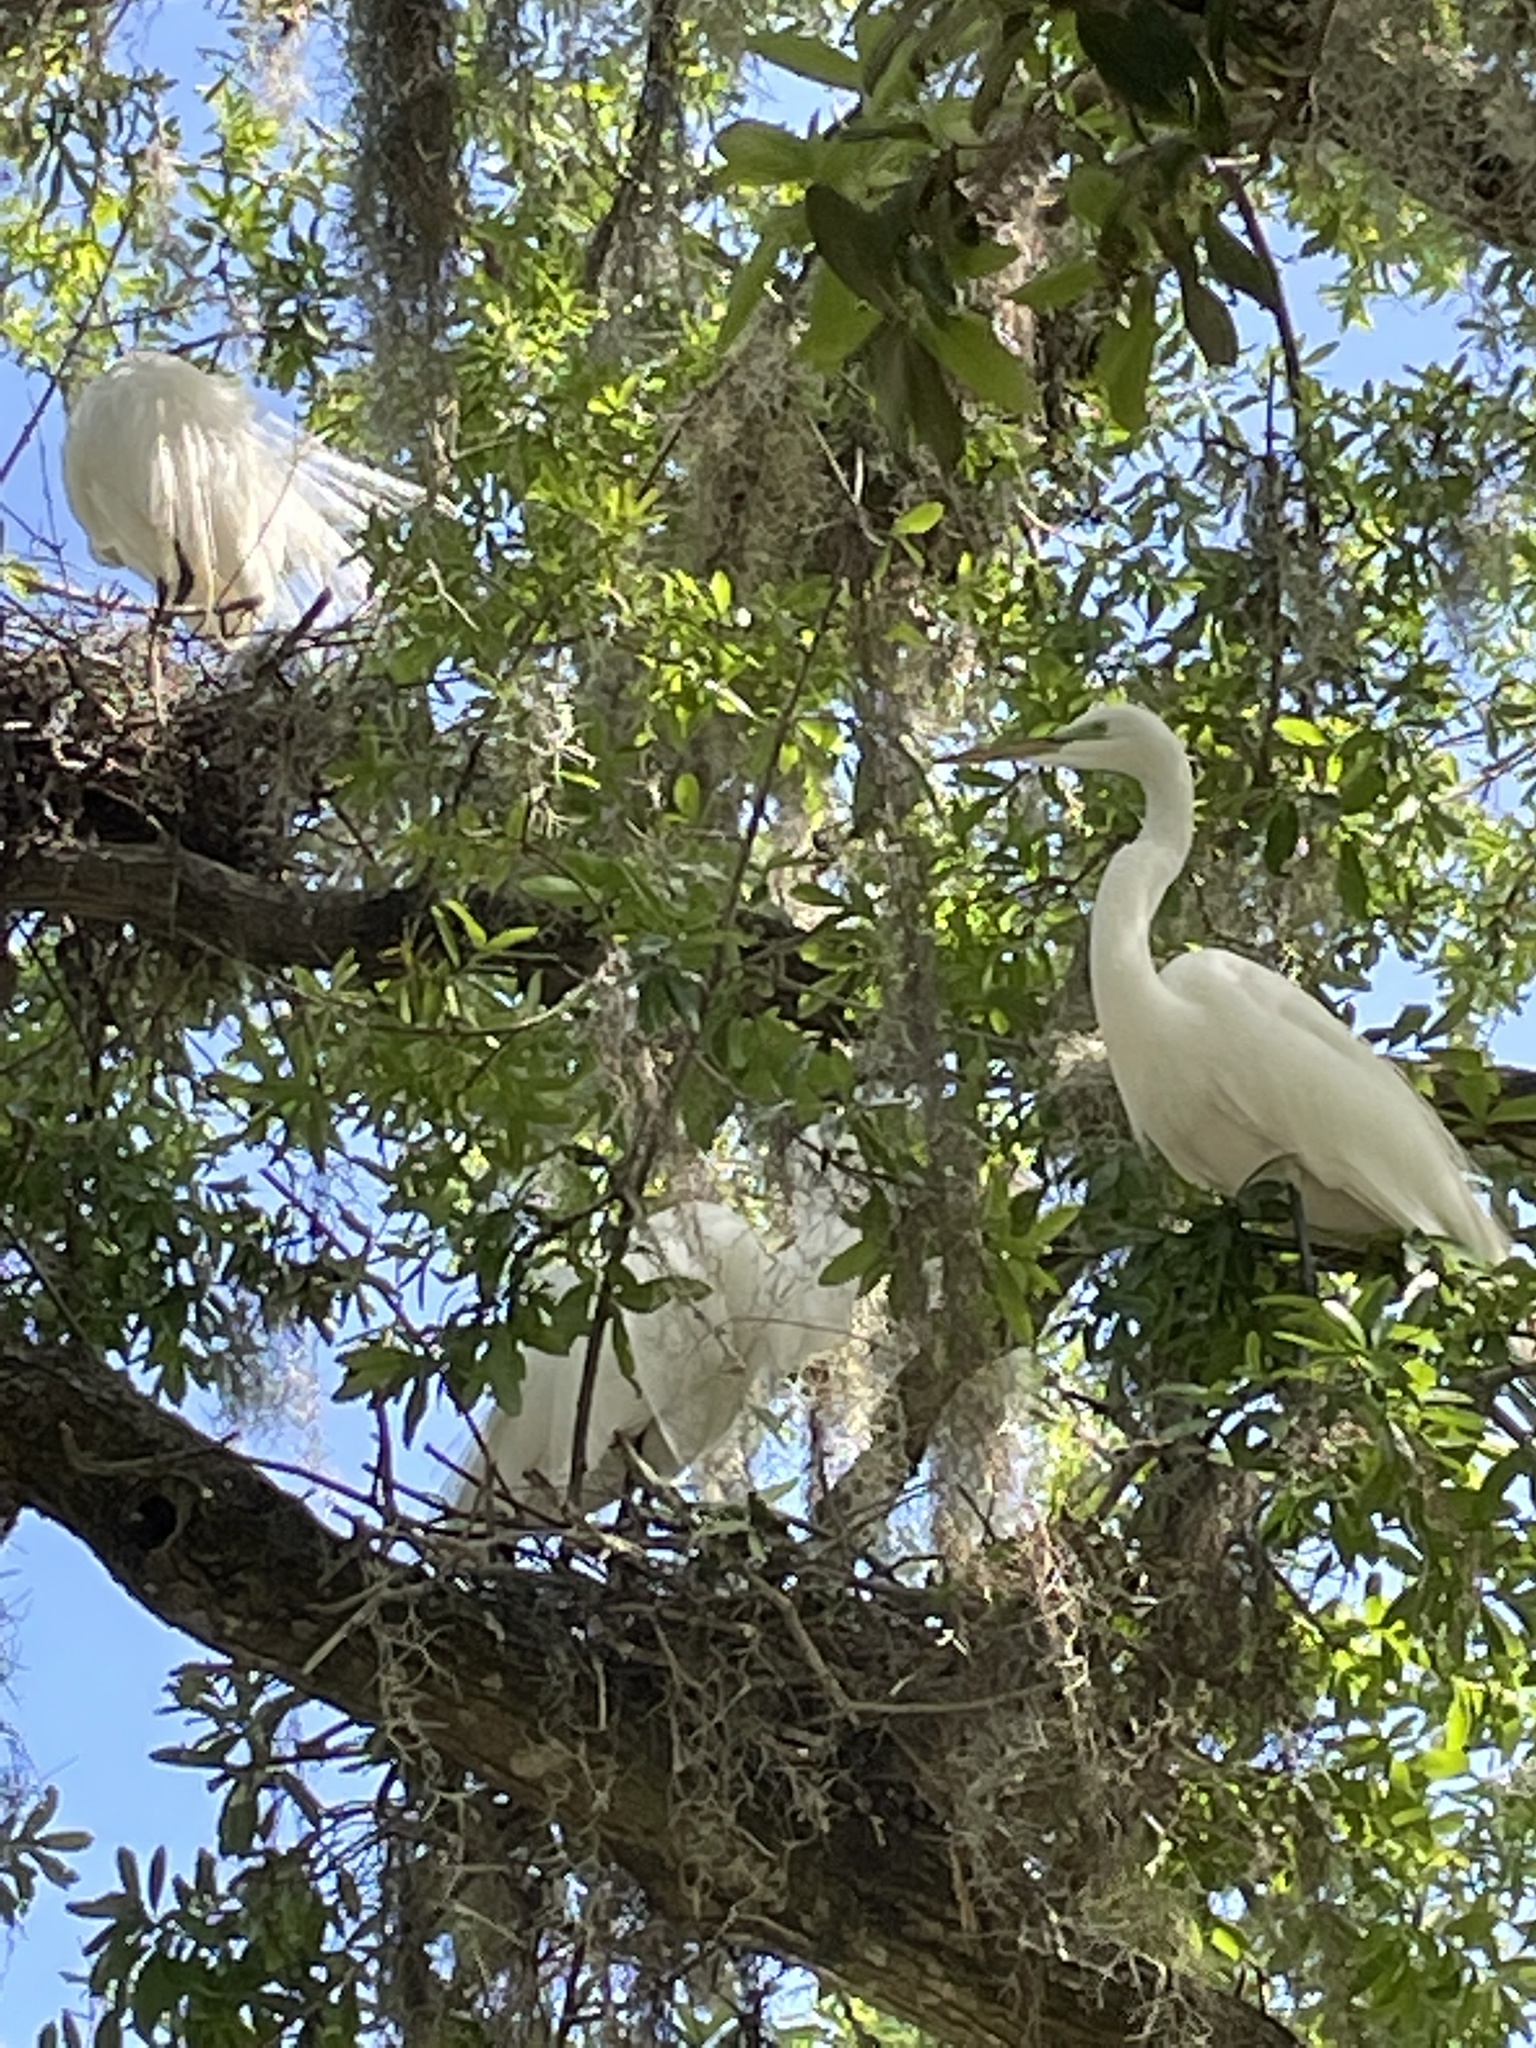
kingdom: Animalia
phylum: Chordata
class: Aves
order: Pelecaniformes
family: Ardeidae
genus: Ardea
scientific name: Ardea alba
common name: Great egret
